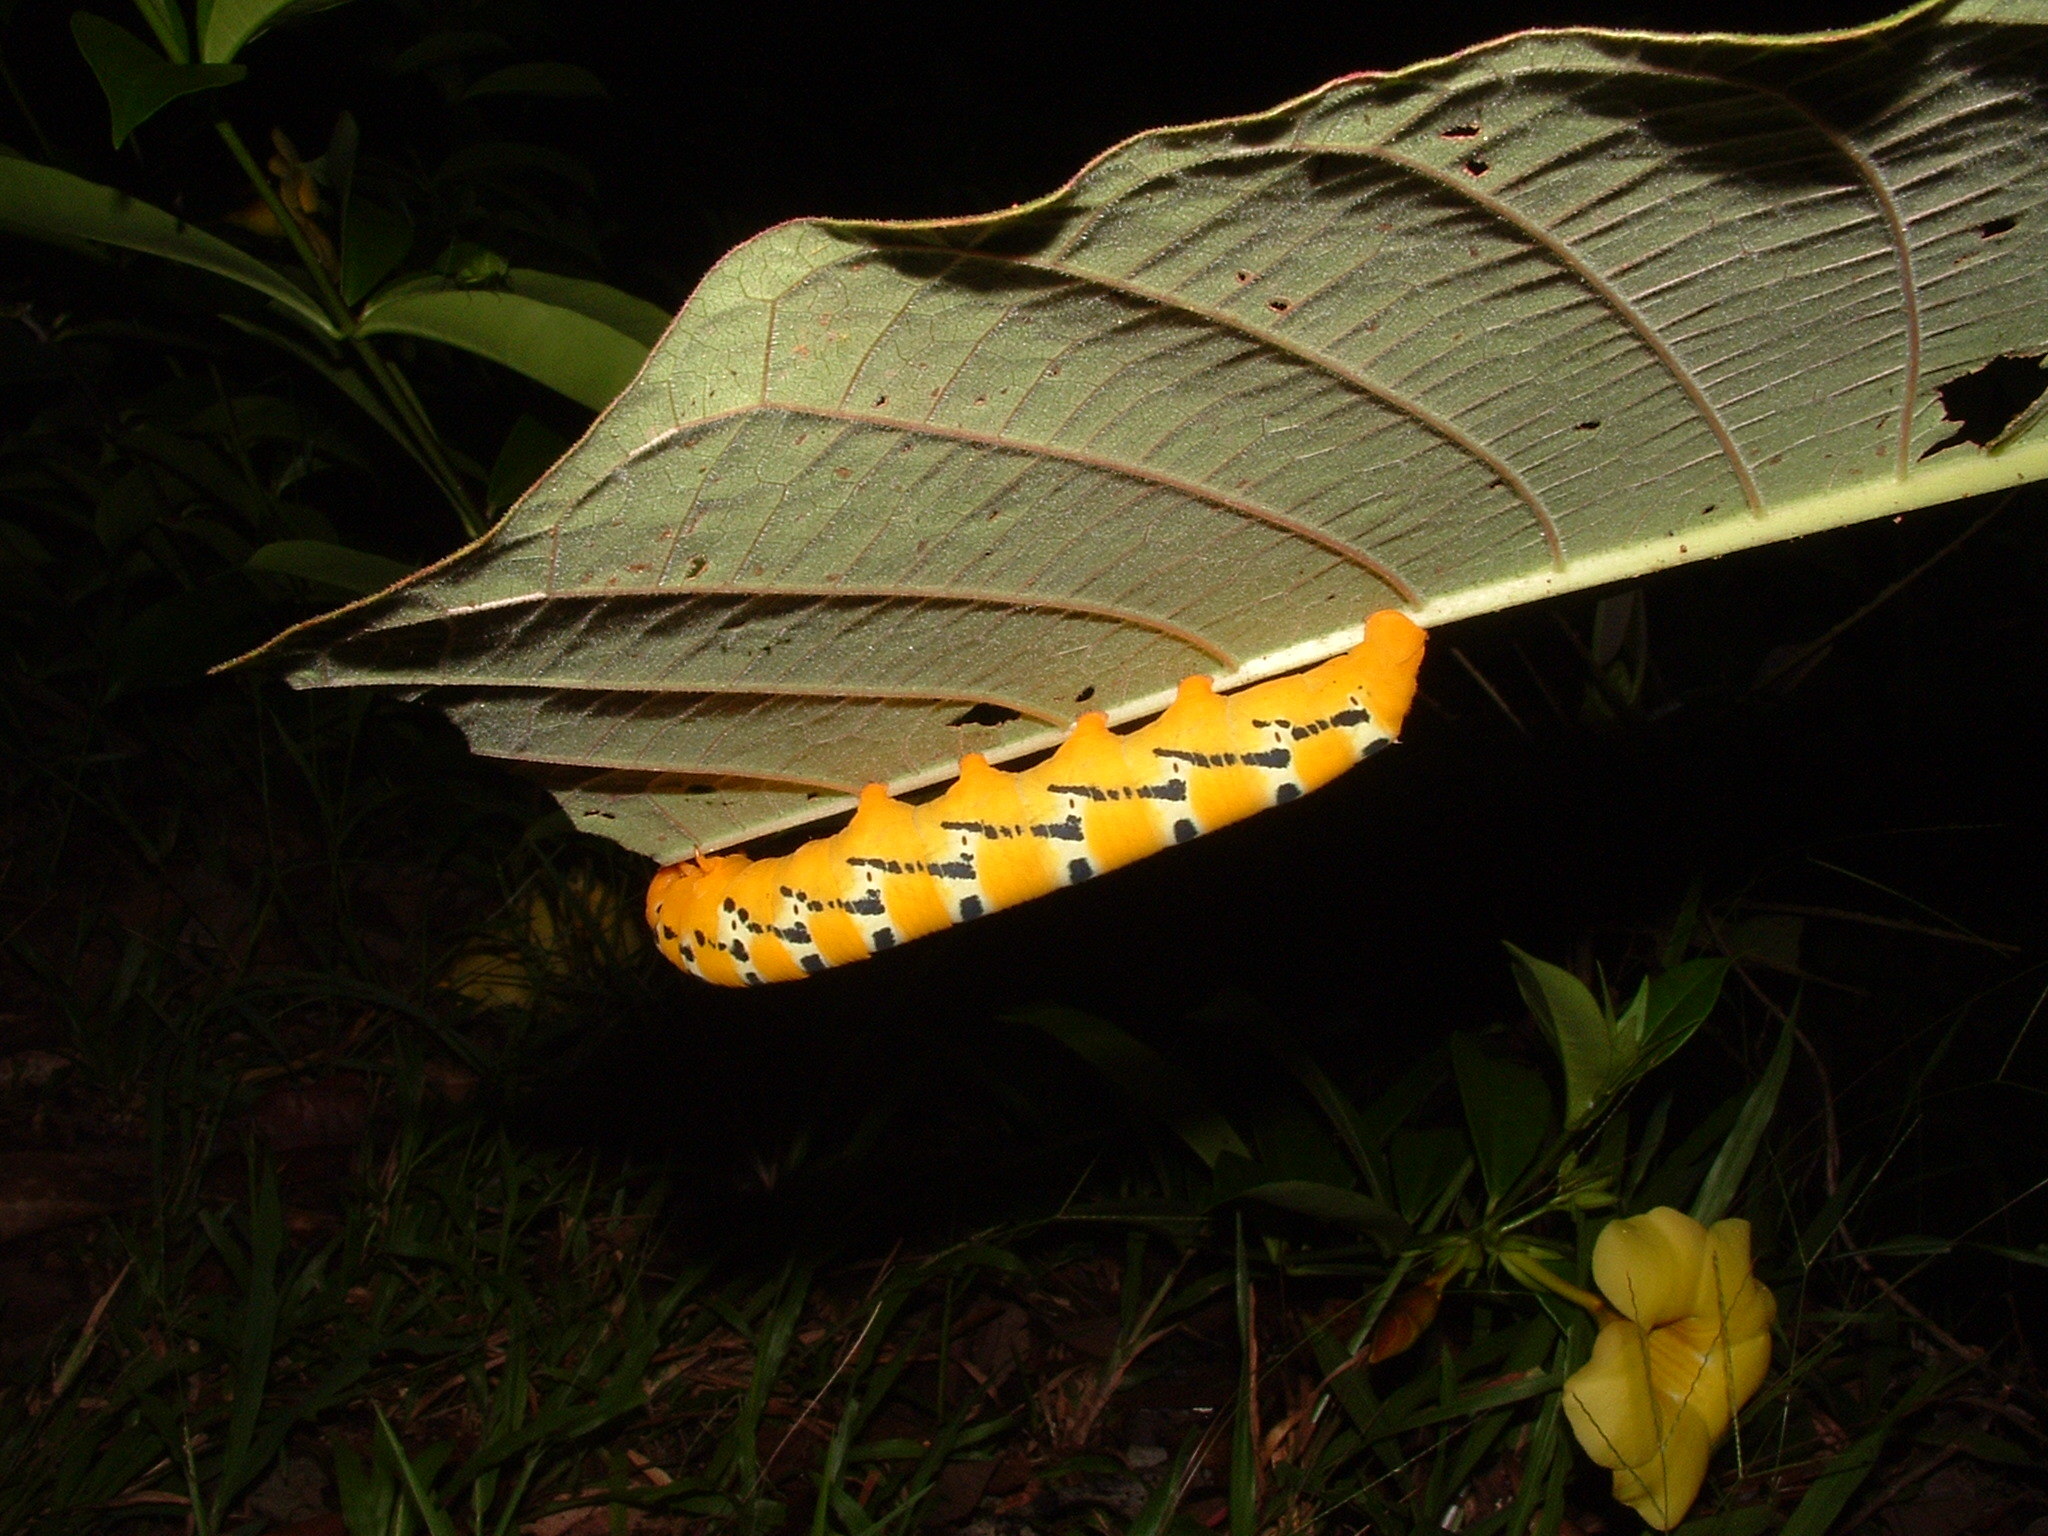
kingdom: Animalia
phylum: Arthropoda
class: Insecta
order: Lepidoptera
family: Sphingidae
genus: Oryba
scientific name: Oryba kadeni
